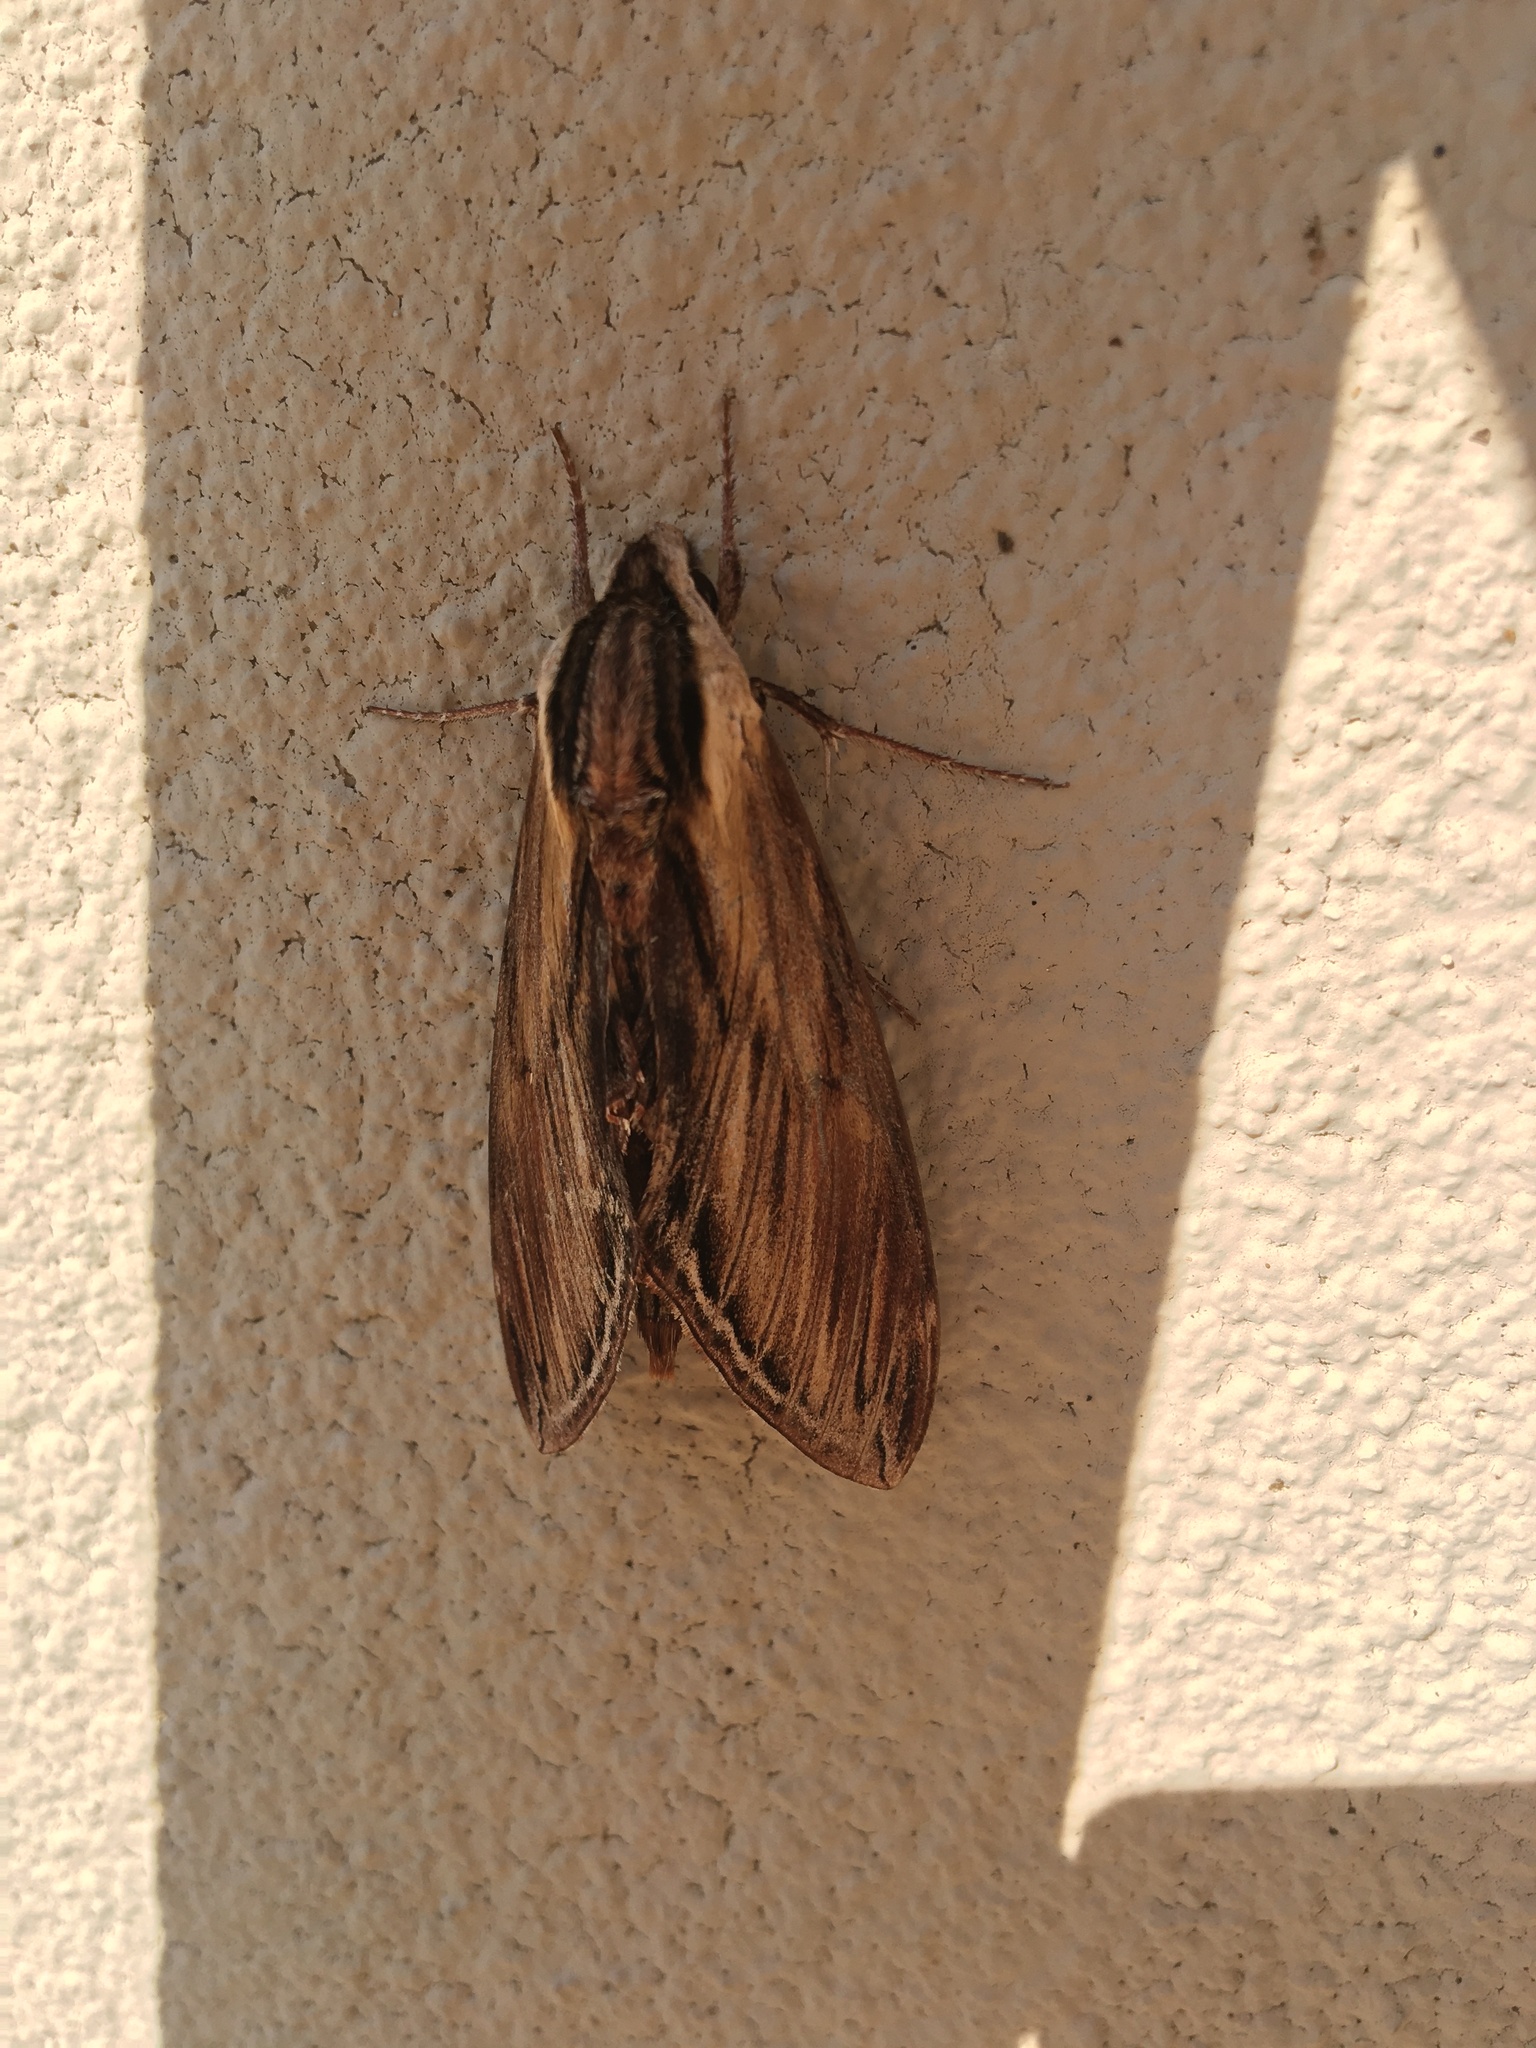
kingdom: Animalia
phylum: Arthropoda
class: Insecta
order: Lepidoptera
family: Sphingidae
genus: Sphinx
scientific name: Sphinx kalmiae
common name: Laurel sphinx
